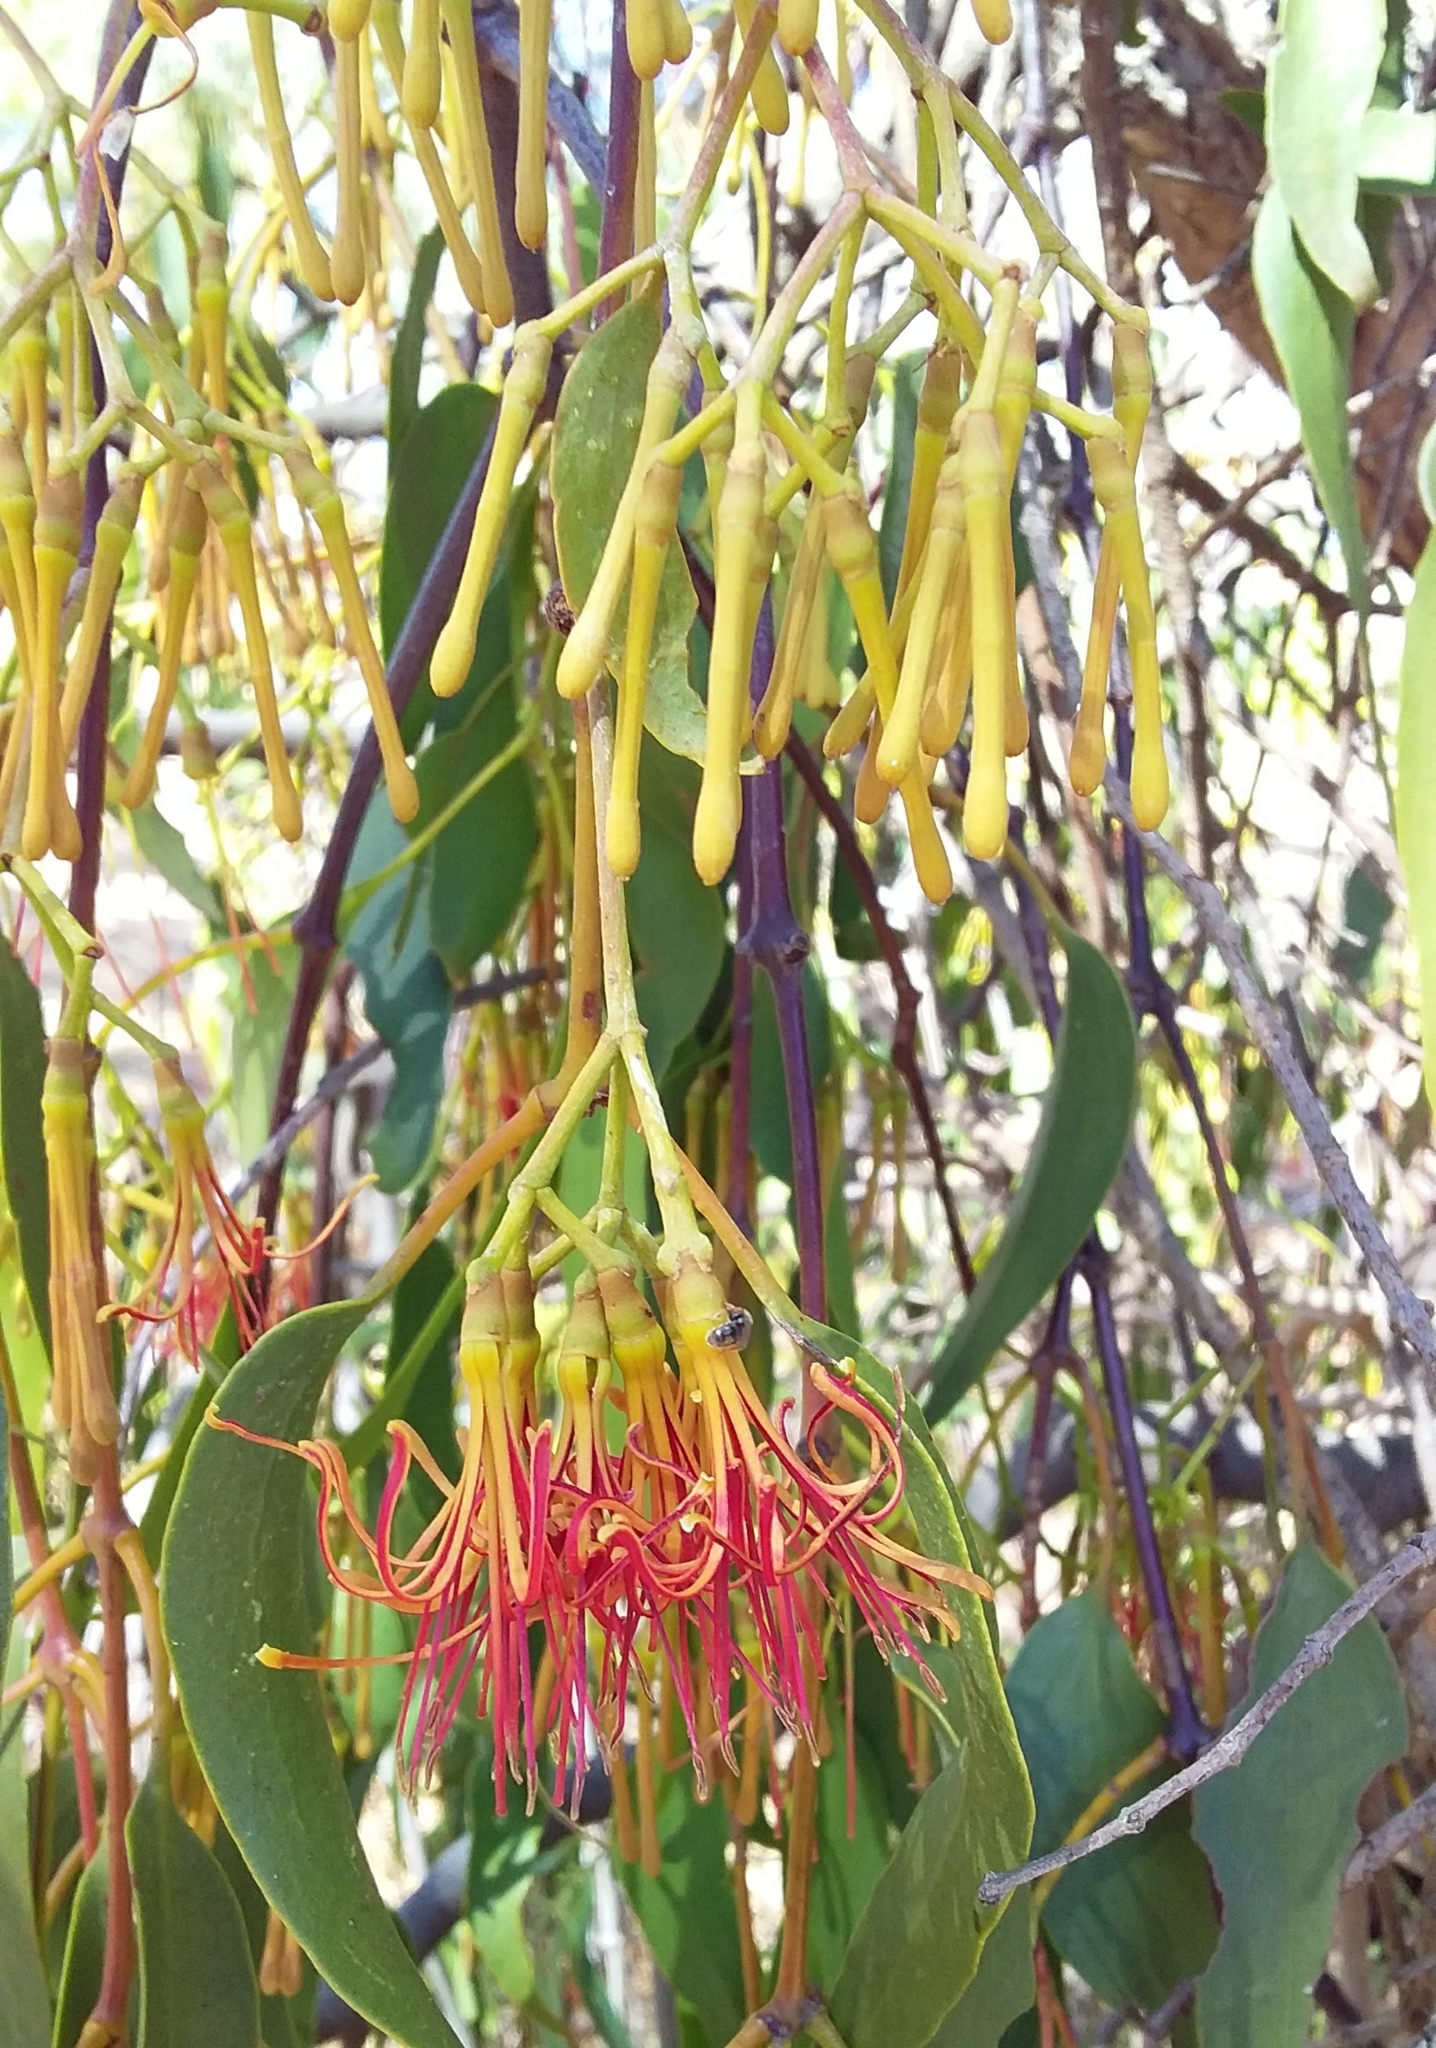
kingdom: Plantae
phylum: Tracheophyta
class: Magnoliopsida
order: Santalales
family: Loranthaceae
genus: Amyema
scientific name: Amyema miquelii
